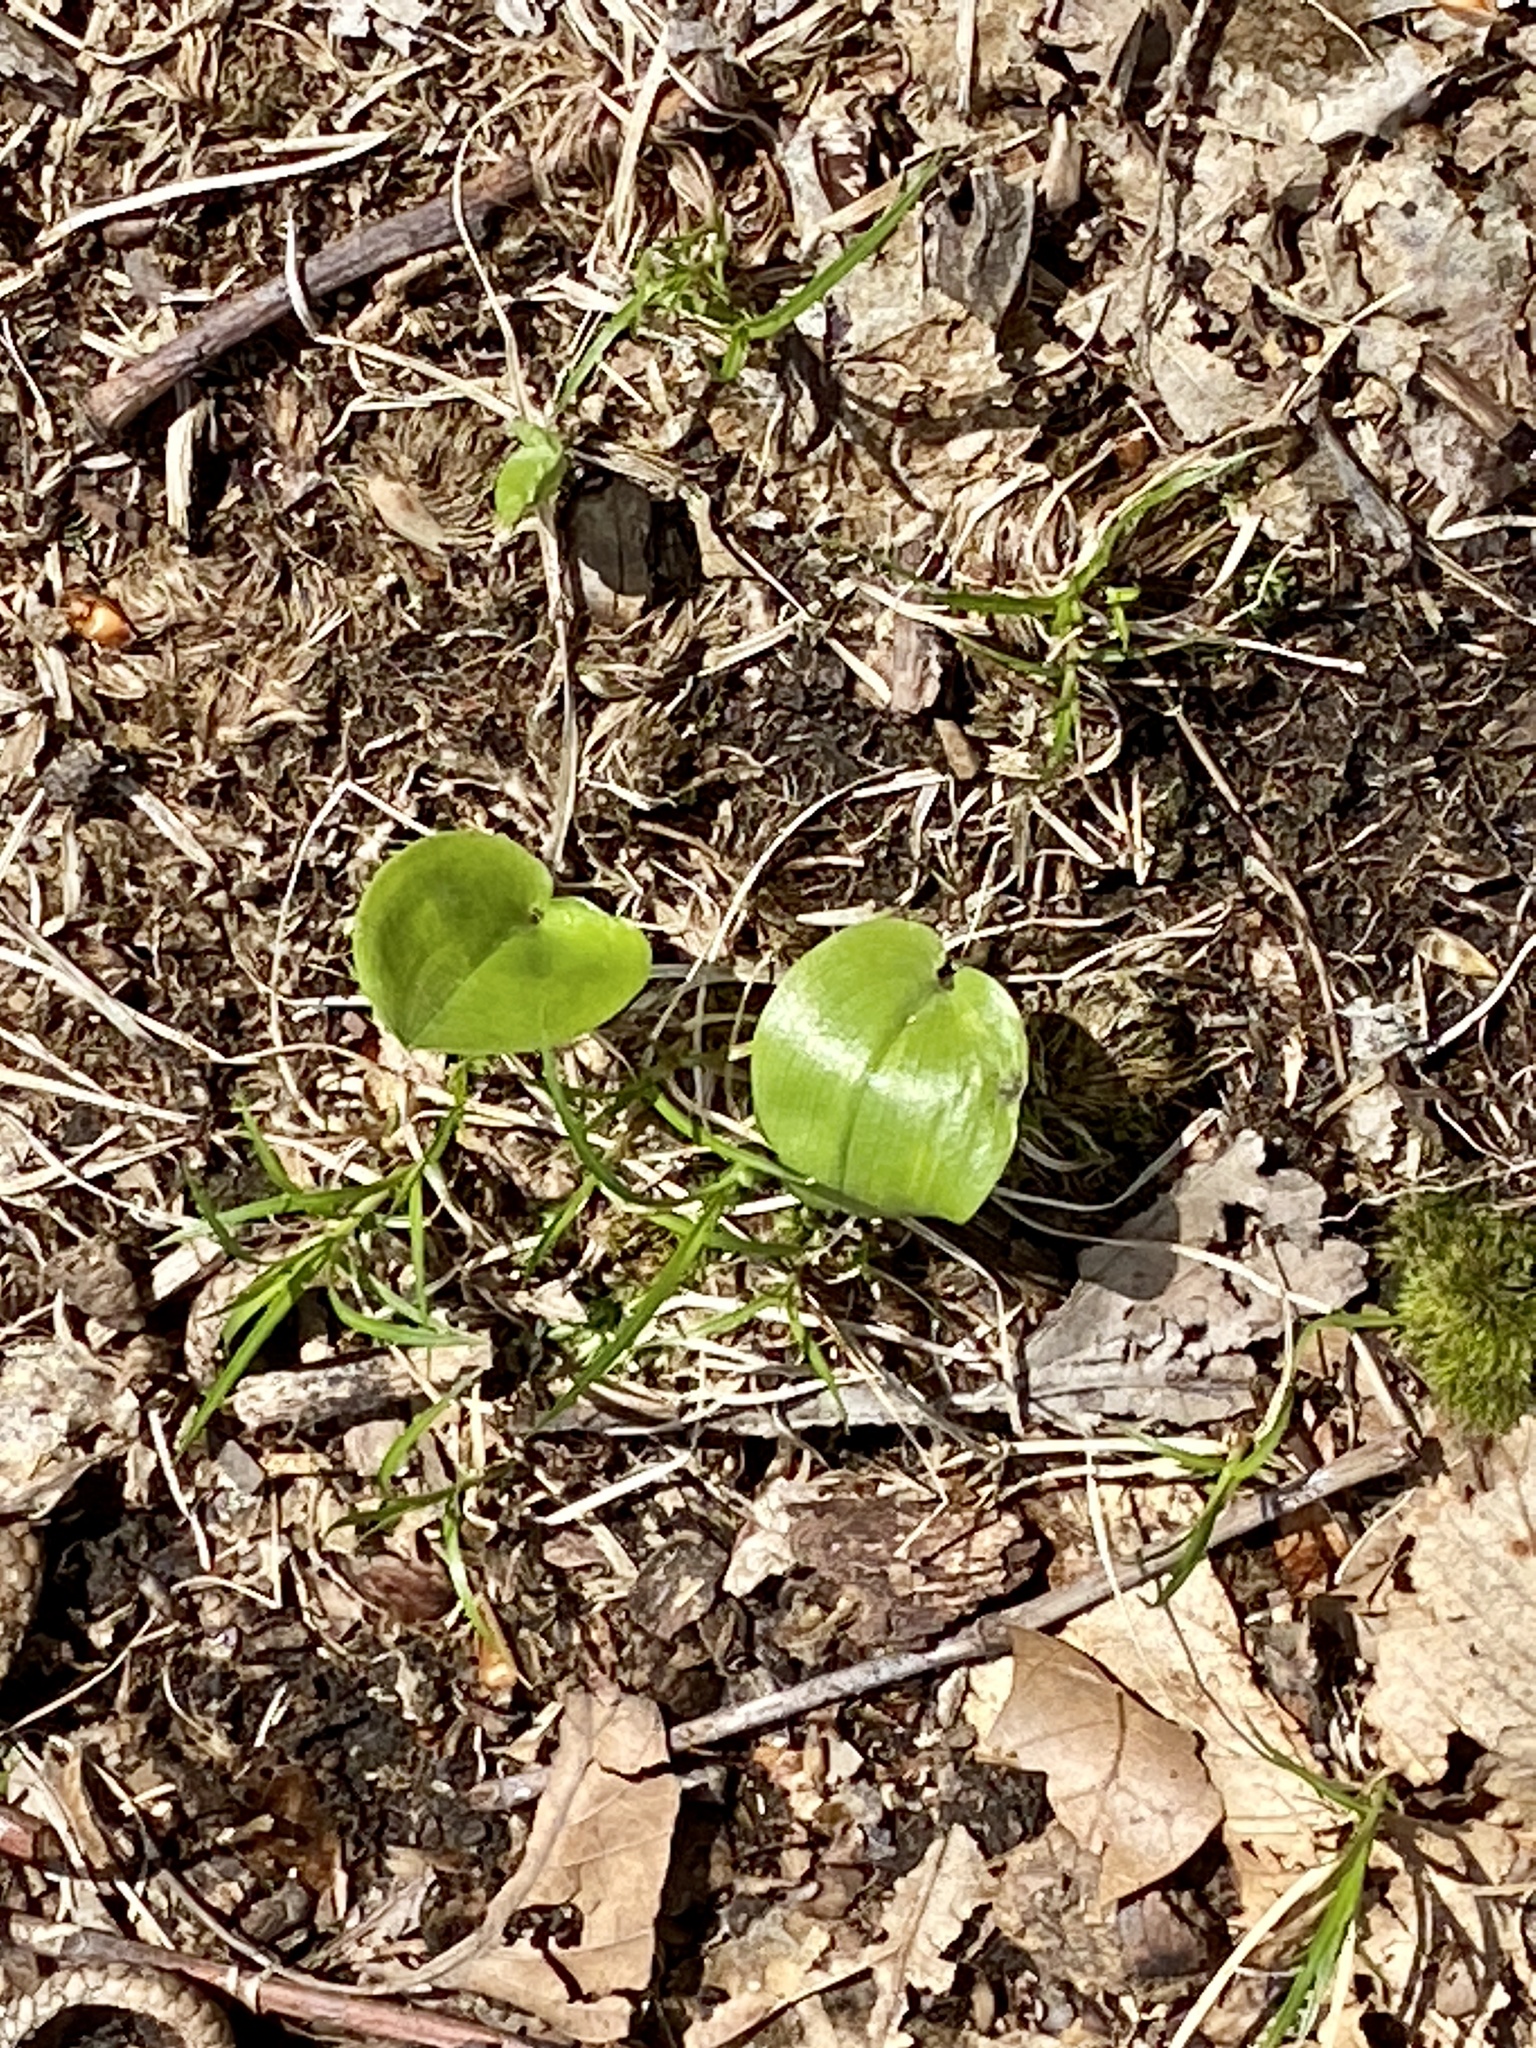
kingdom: Plantae
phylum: Tracheophyta
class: Liliopsida
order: Asparagales
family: Asparagaceae
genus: Maianthemum
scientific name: Maianthemum canadense
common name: False lily-of-the-valley
